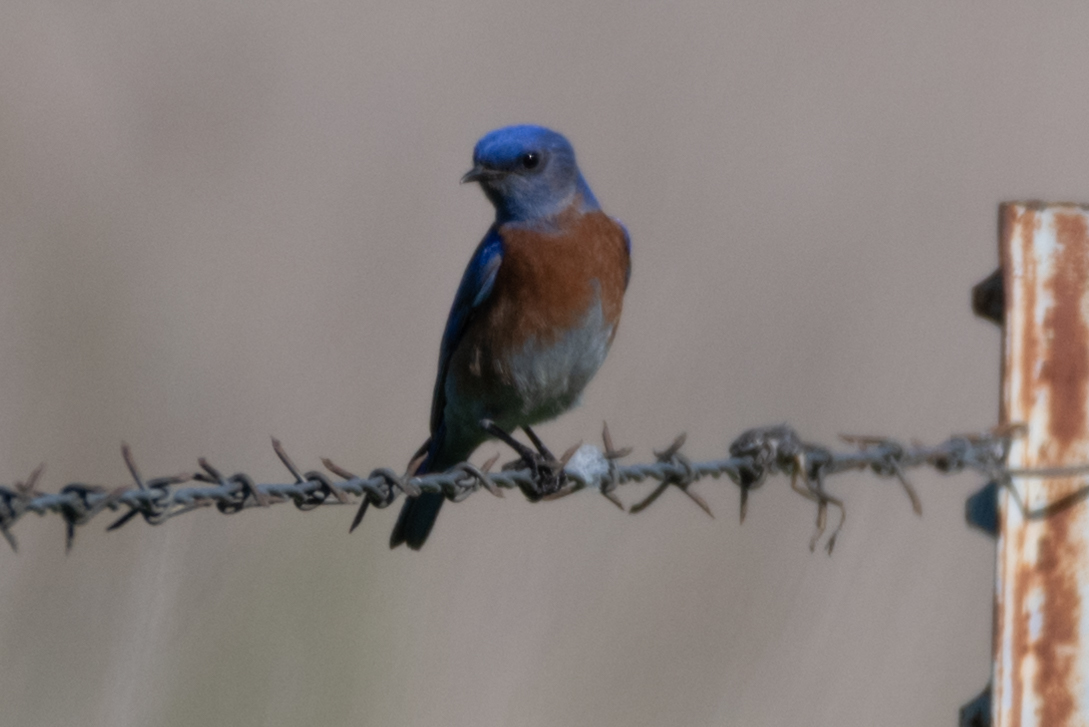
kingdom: Animalia
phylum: Chordata
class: Aves
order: Passeriformes
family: Turdidae
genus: Sialia
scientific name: Sialia mexicana
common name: Western bluebird
